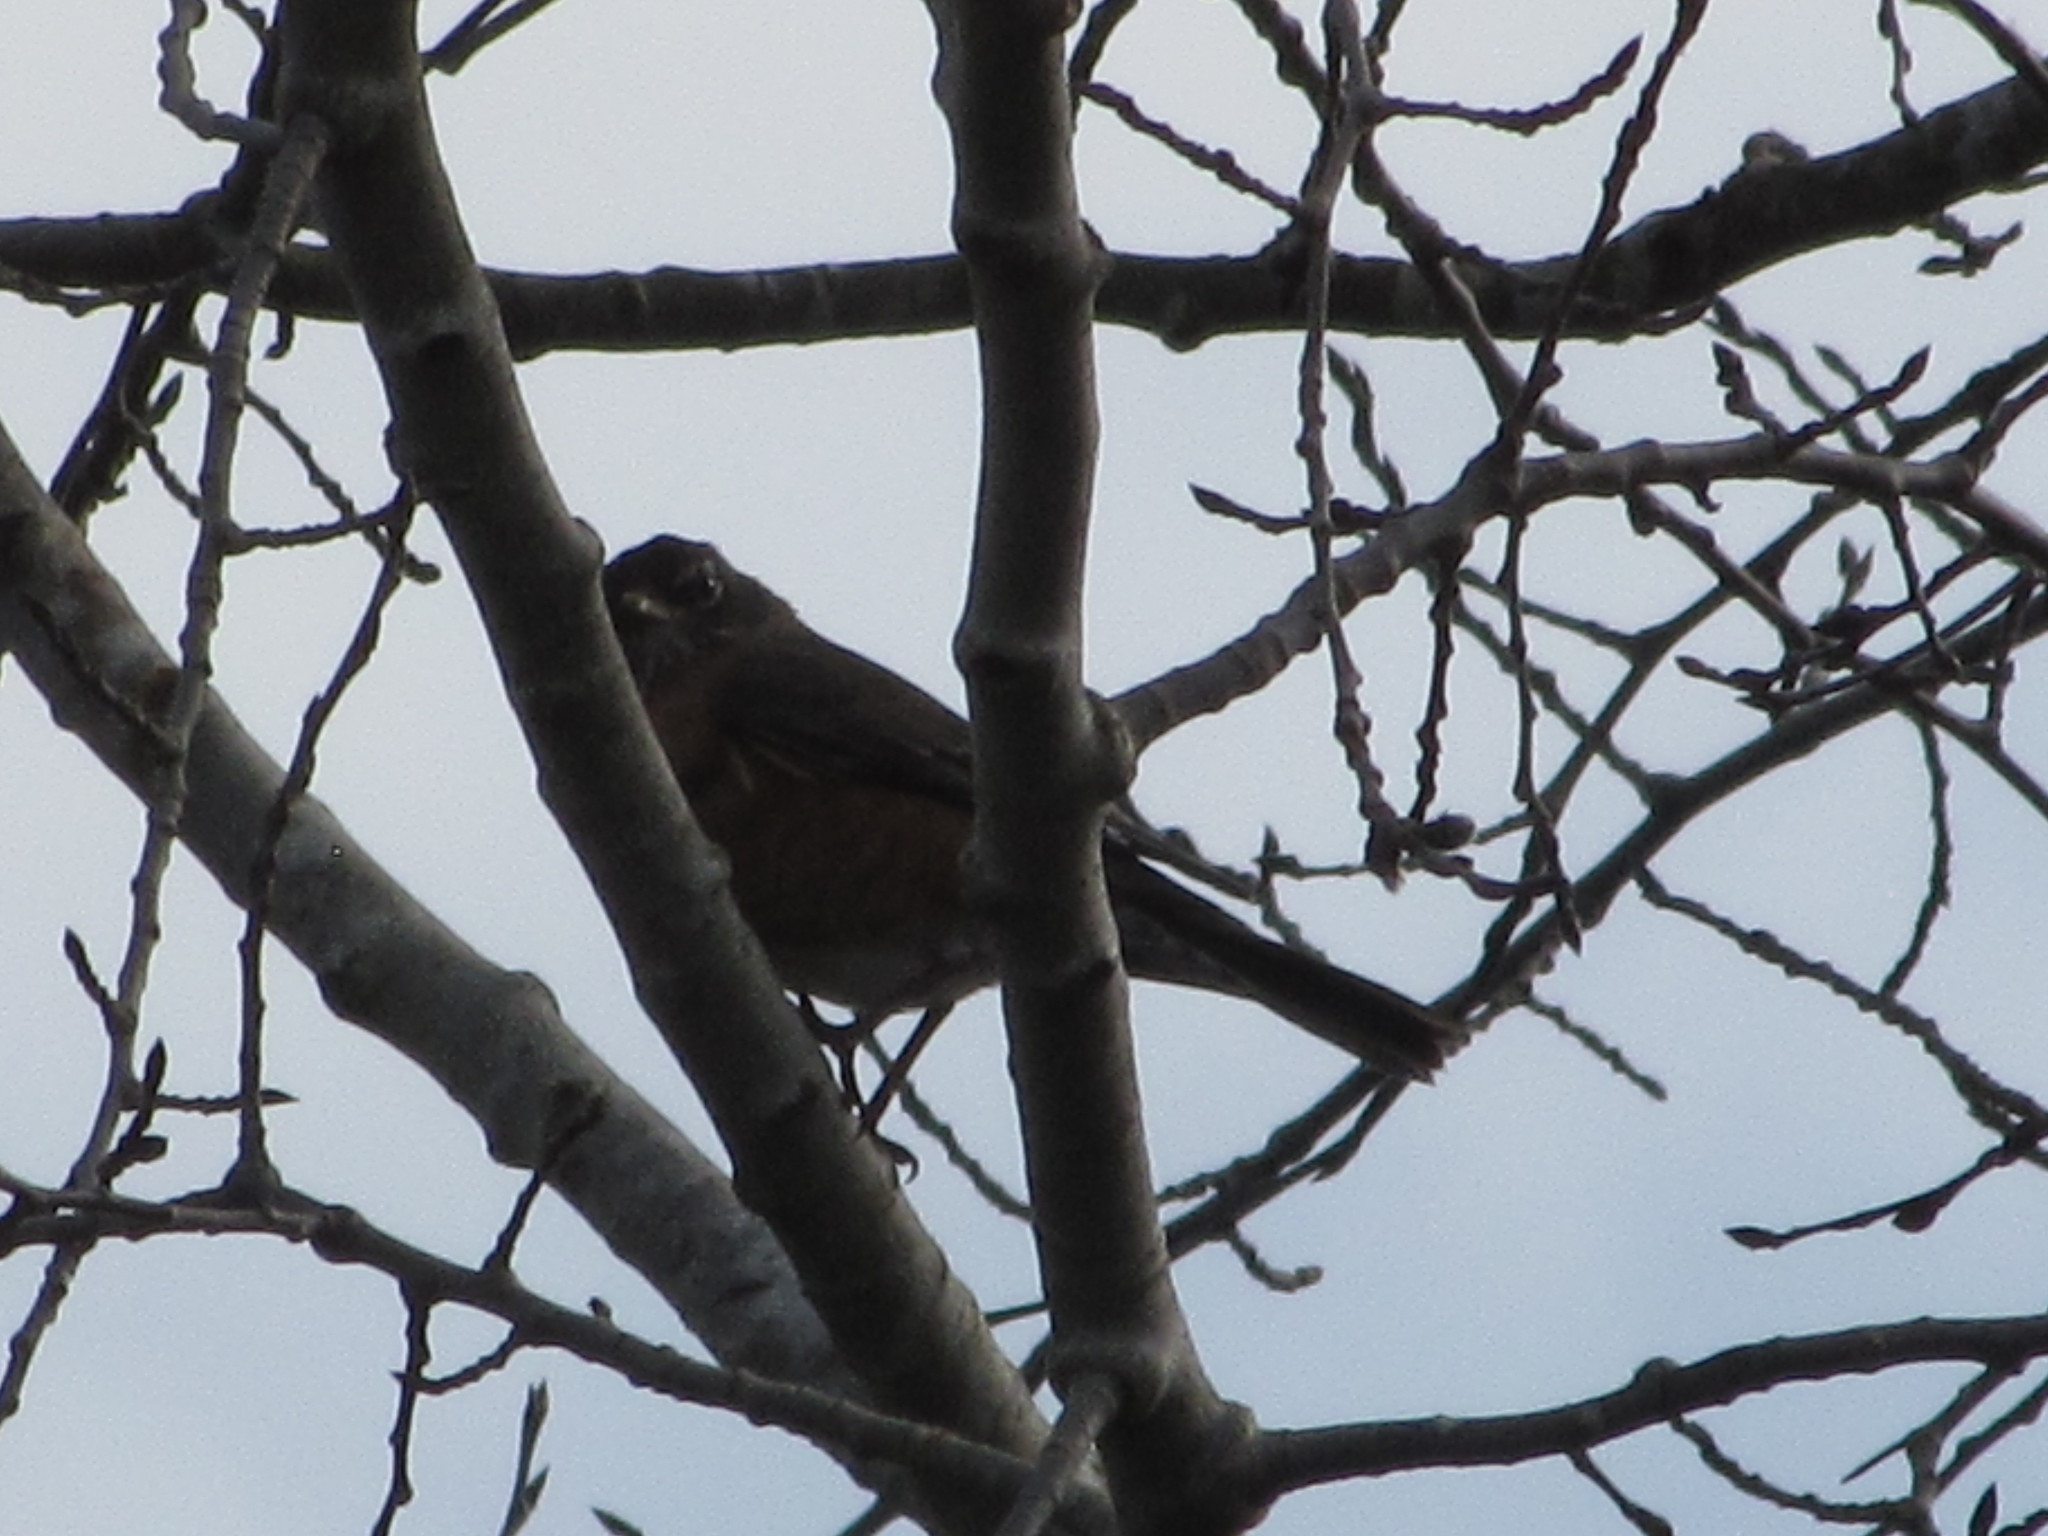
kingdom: Animalia
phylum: Chordata
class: Aves
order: Passeriformes
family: Turdidae
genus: Turdus
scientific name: Turdus migratorius
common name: American robin
